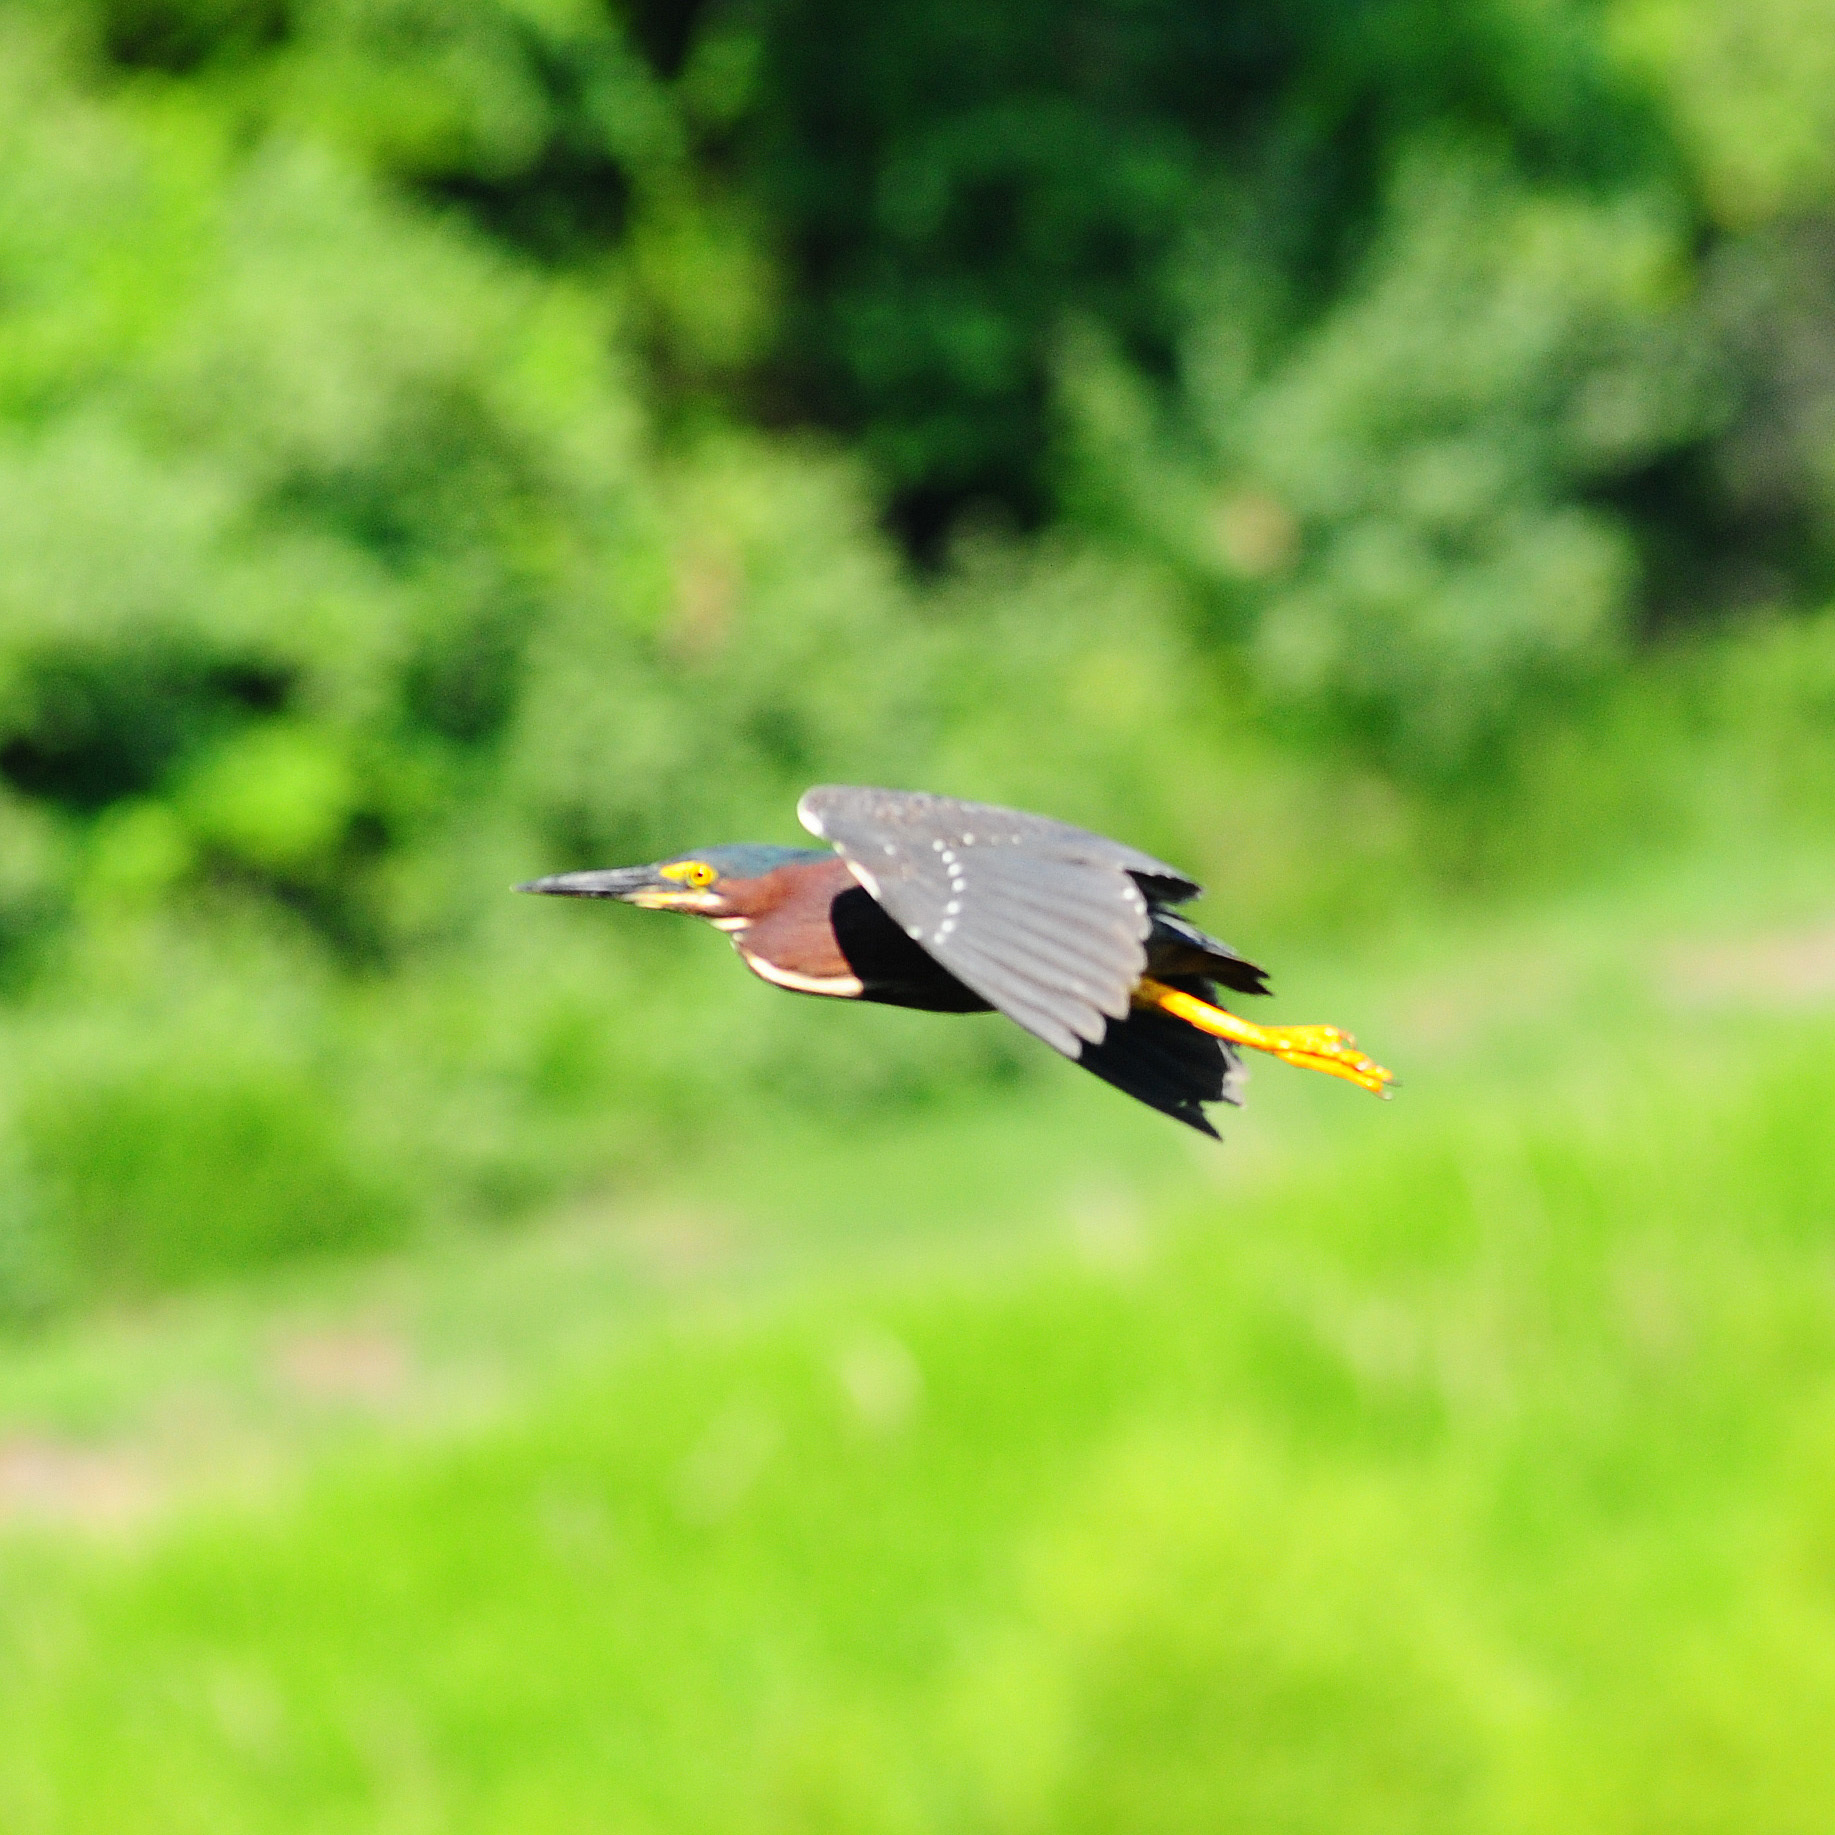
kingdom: Animalia
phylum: Chordata
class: Aves
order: Pelecaniformes
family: Ardeidae
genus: Butorides
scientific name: Butorides virescens
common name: Green heron
